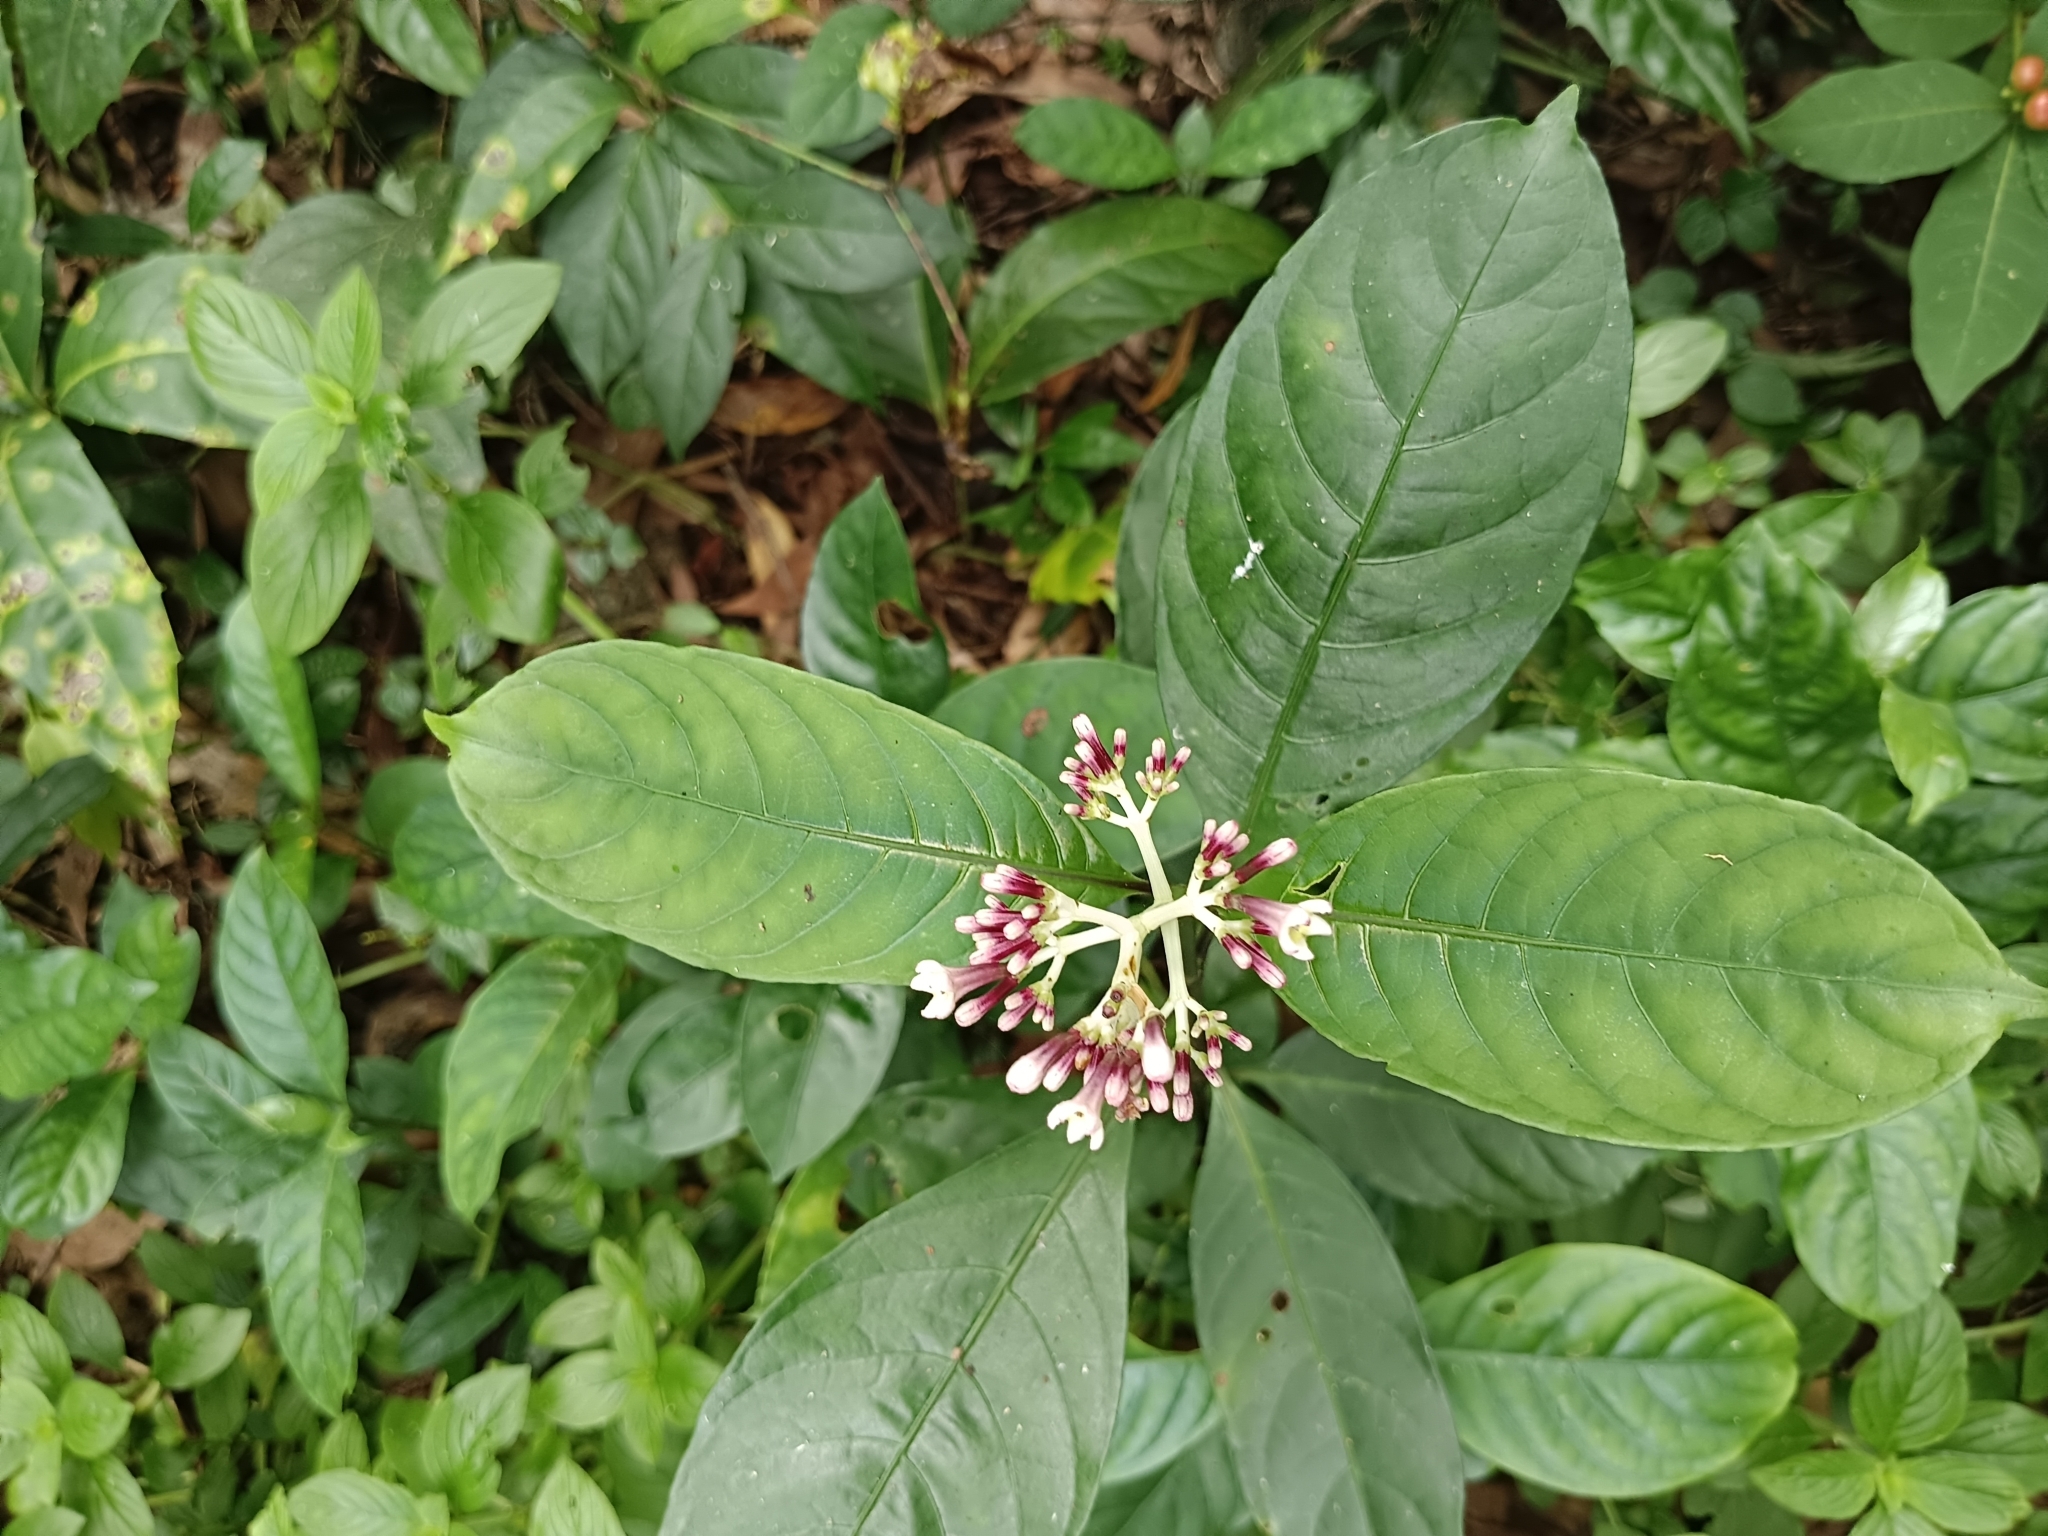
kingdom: Plantae
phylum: Tracheophyta
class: Magnoliopsida
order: Gentianales
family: Rubiaceae
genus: Chassalia
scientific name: Chassalia curviflora
